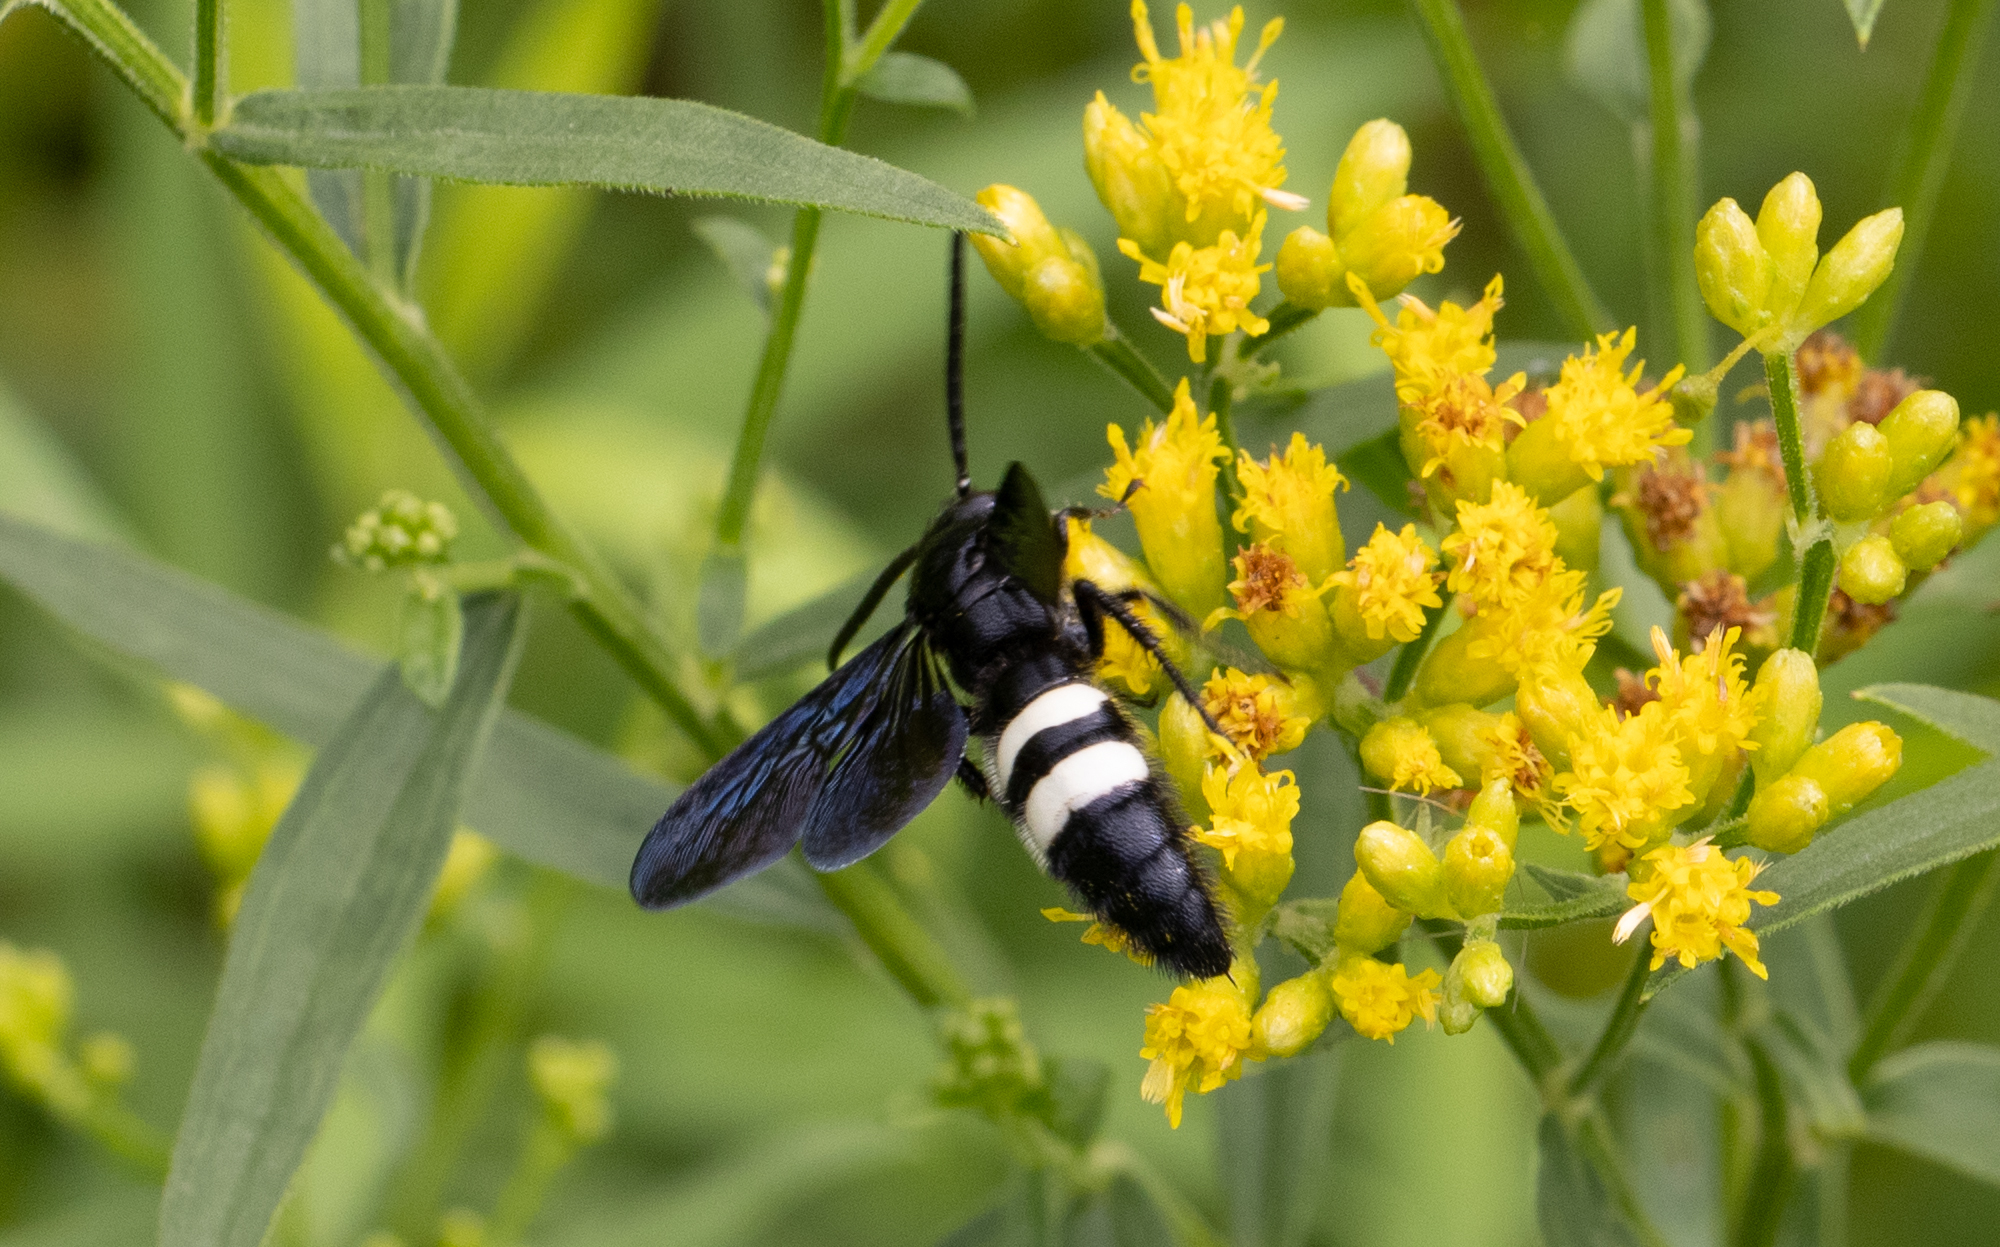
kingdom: Animalia
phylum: Arthropoda
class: Insecta
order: Hymenoptera
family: Scoliidae
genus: Scolia
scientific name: Scolia bicincta
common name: Double-banded scoliid wasp
